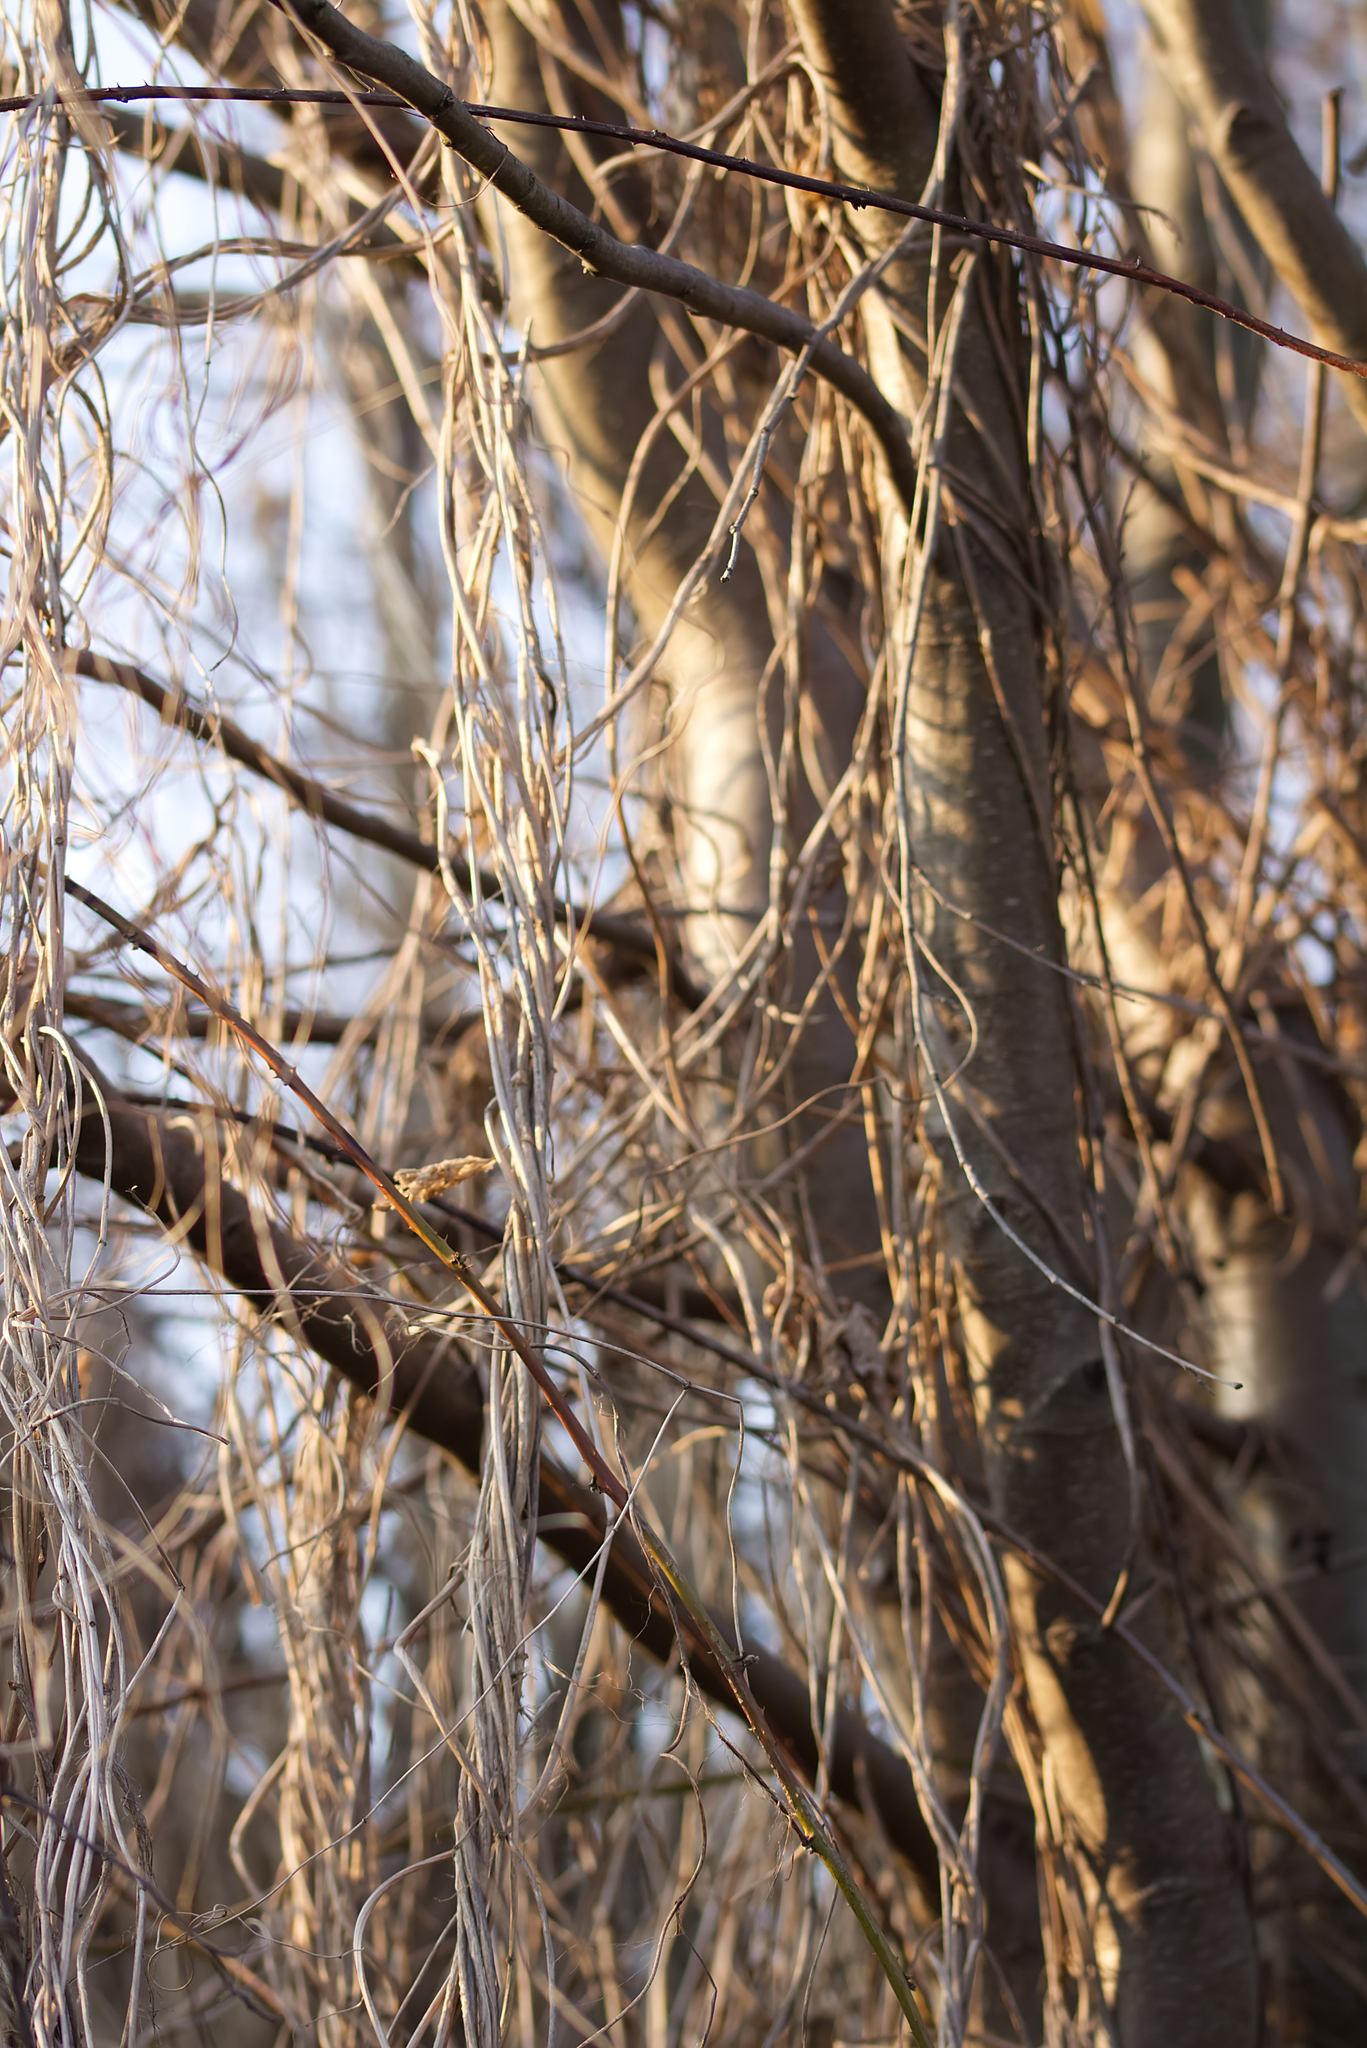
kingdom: Plantae
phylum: Tracheophyta
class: Magnoliopsida
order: Rosales
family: Cannabaceae
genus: Humulus
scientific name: Humulus lupulus
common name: Hop
